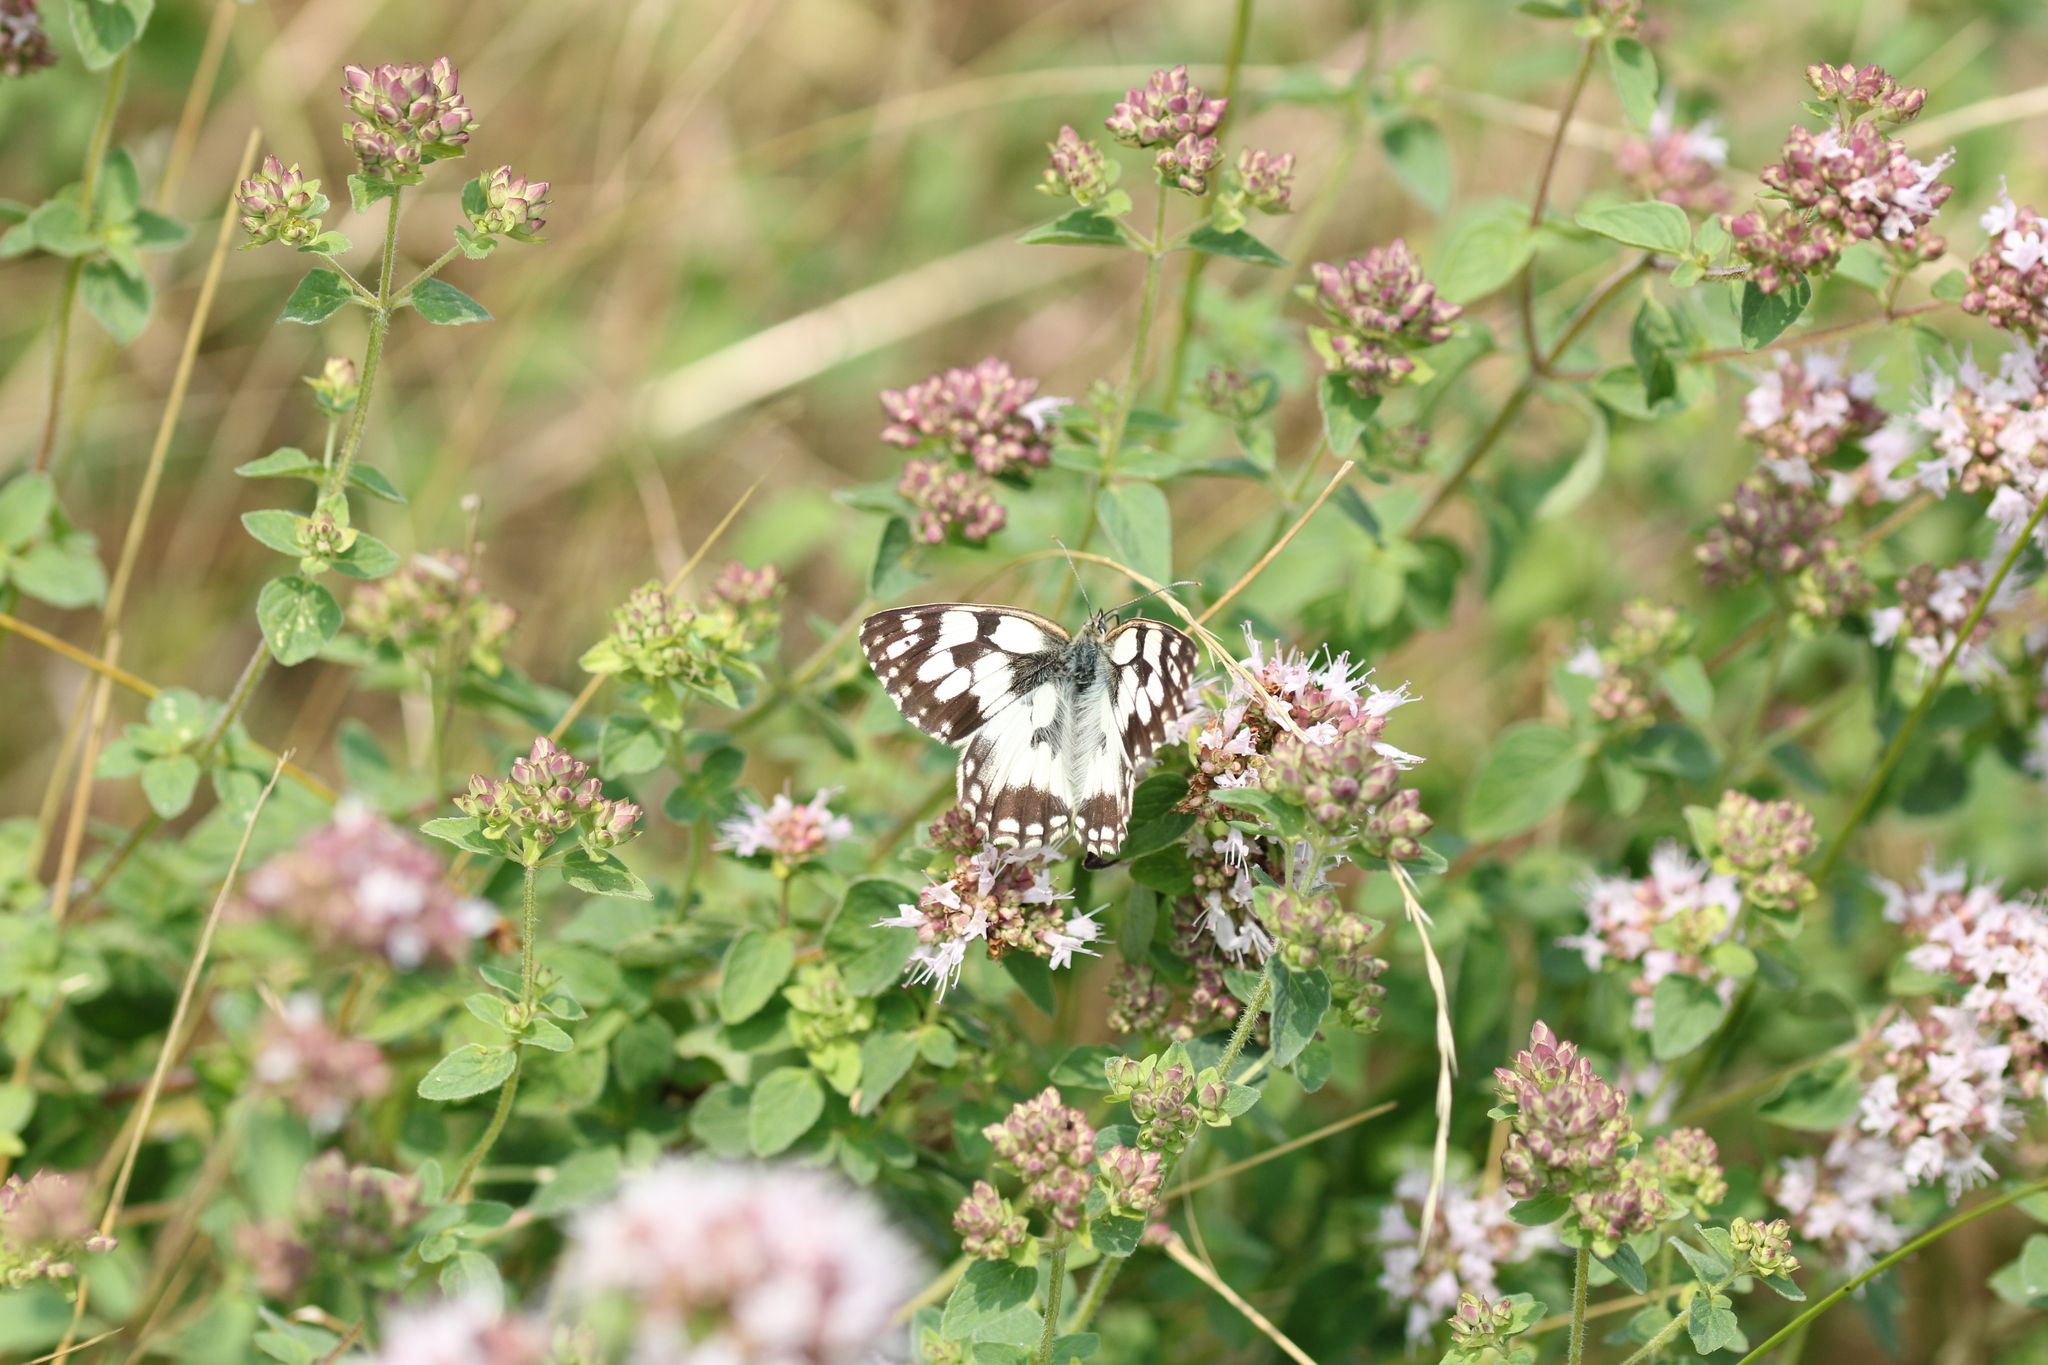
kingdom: Animalia
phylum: Arthropoda
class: Insecta
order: Lepidoptera
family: Nymphalidae
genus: Melanargia
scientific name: Melanargia galathea
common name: Marbled white
